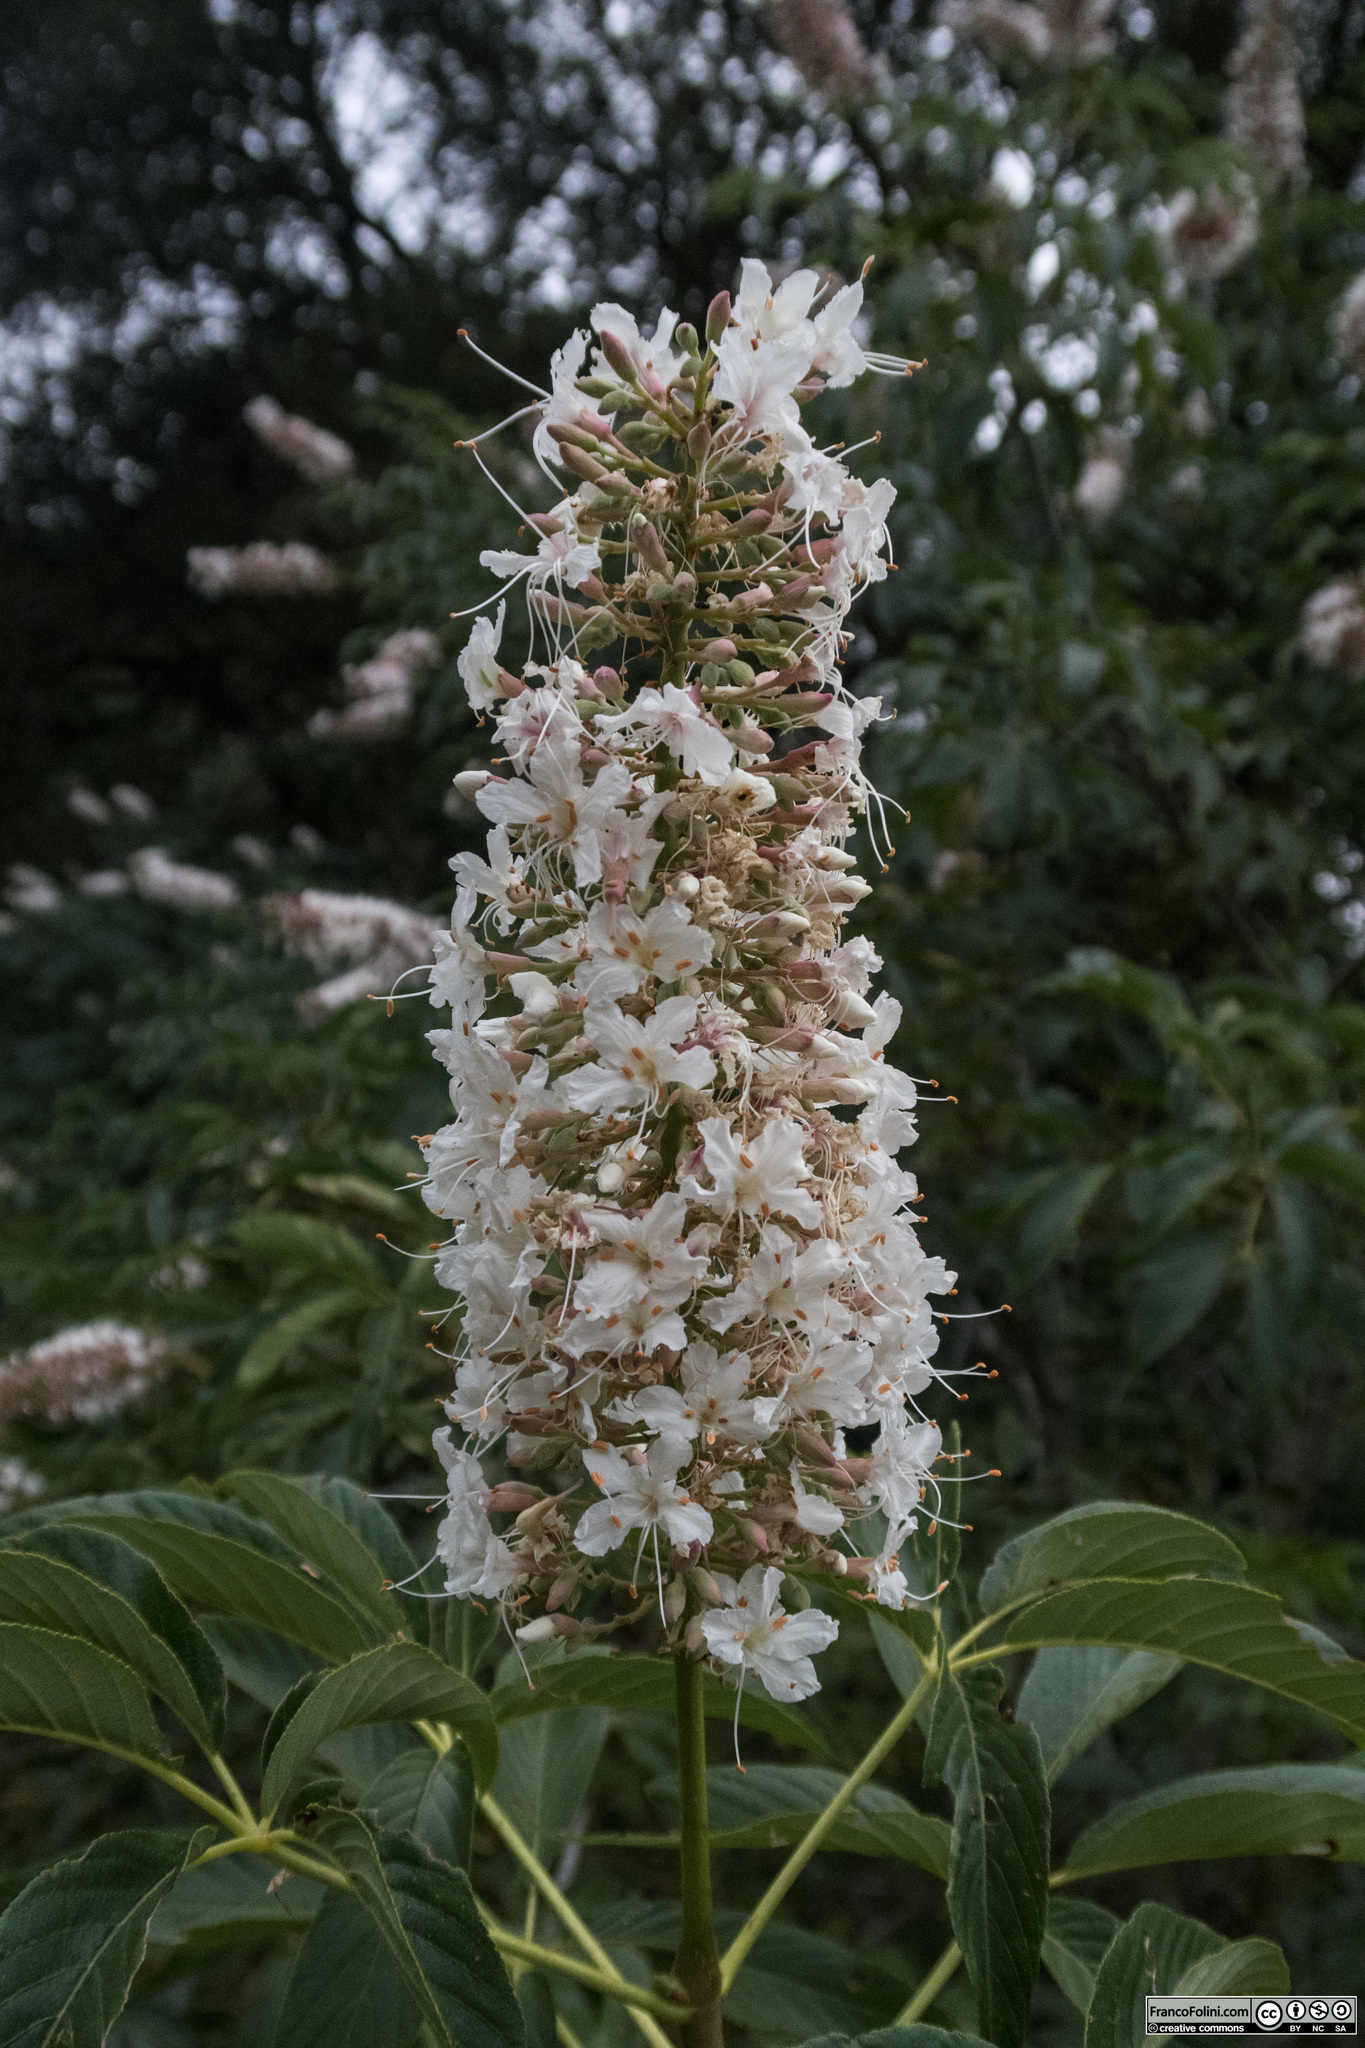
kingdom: Plantae
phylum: Tracheophyta
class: Magnoliopsida
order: Sapindales
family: Sapindaceae
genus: Aesculus
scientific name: Aesculus californica
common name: California buckeye
